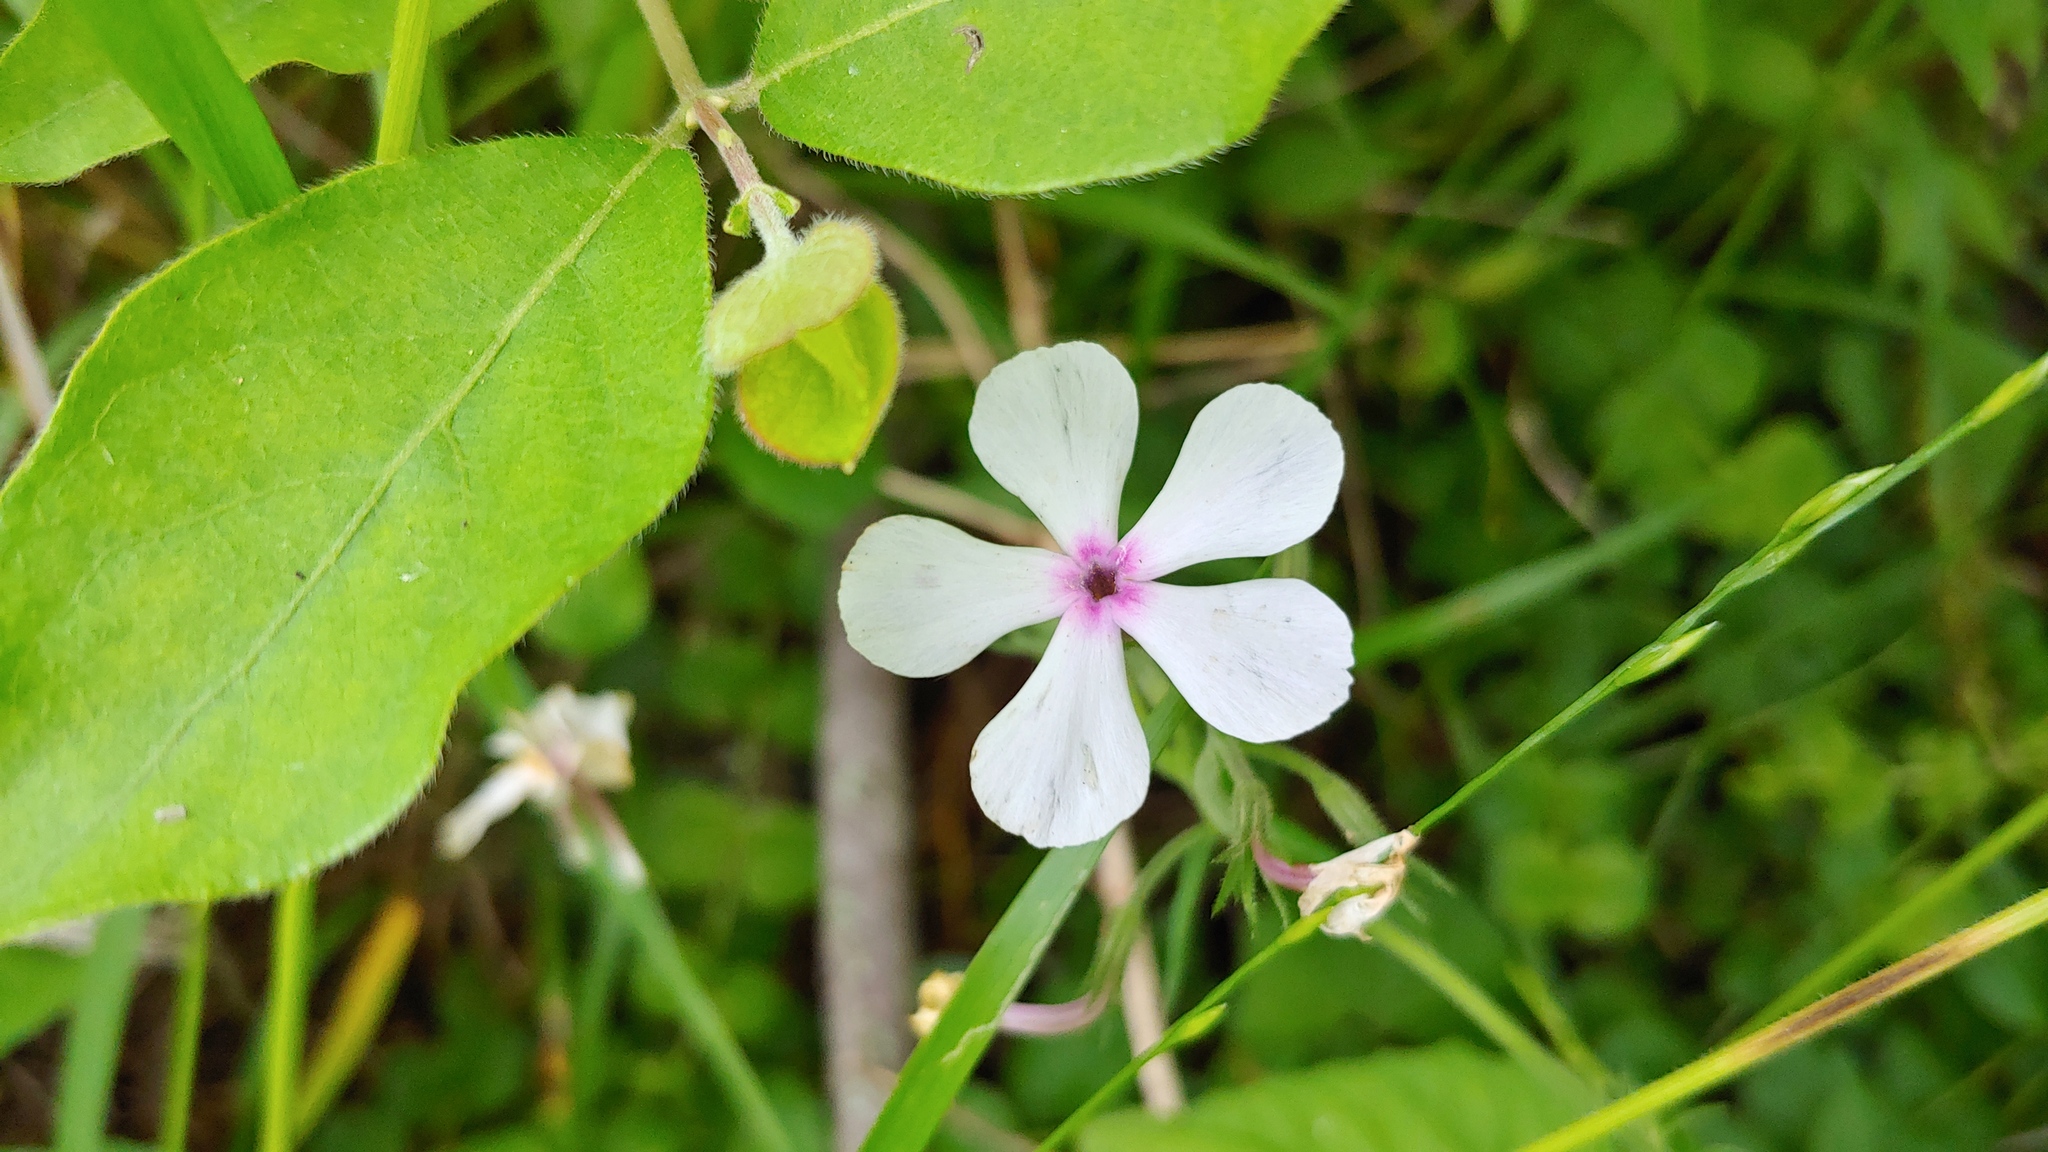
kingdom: Plantae
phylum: Tracheophyta
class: Magnoliopsida
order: Ericales
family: Polemoniaceae
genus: Phlox
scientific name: Phlox divaricata
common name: Blue phlox
